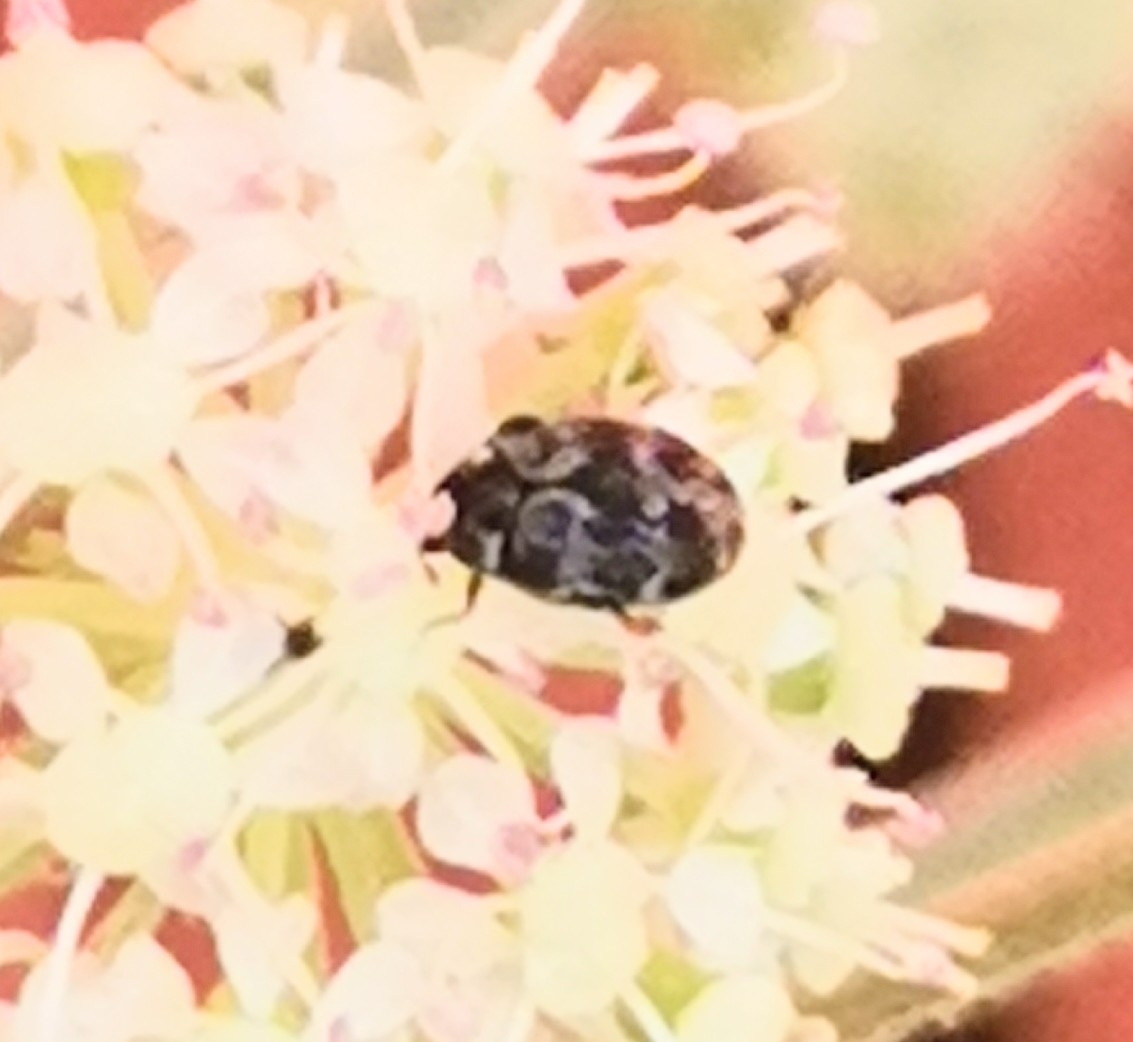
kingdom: Animalia
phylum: Arthropoda
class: Insecta
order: Coleoptera
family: Dermestidae
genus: Anthrenus
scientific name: Anthrenus museorum
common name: Museum beetle
